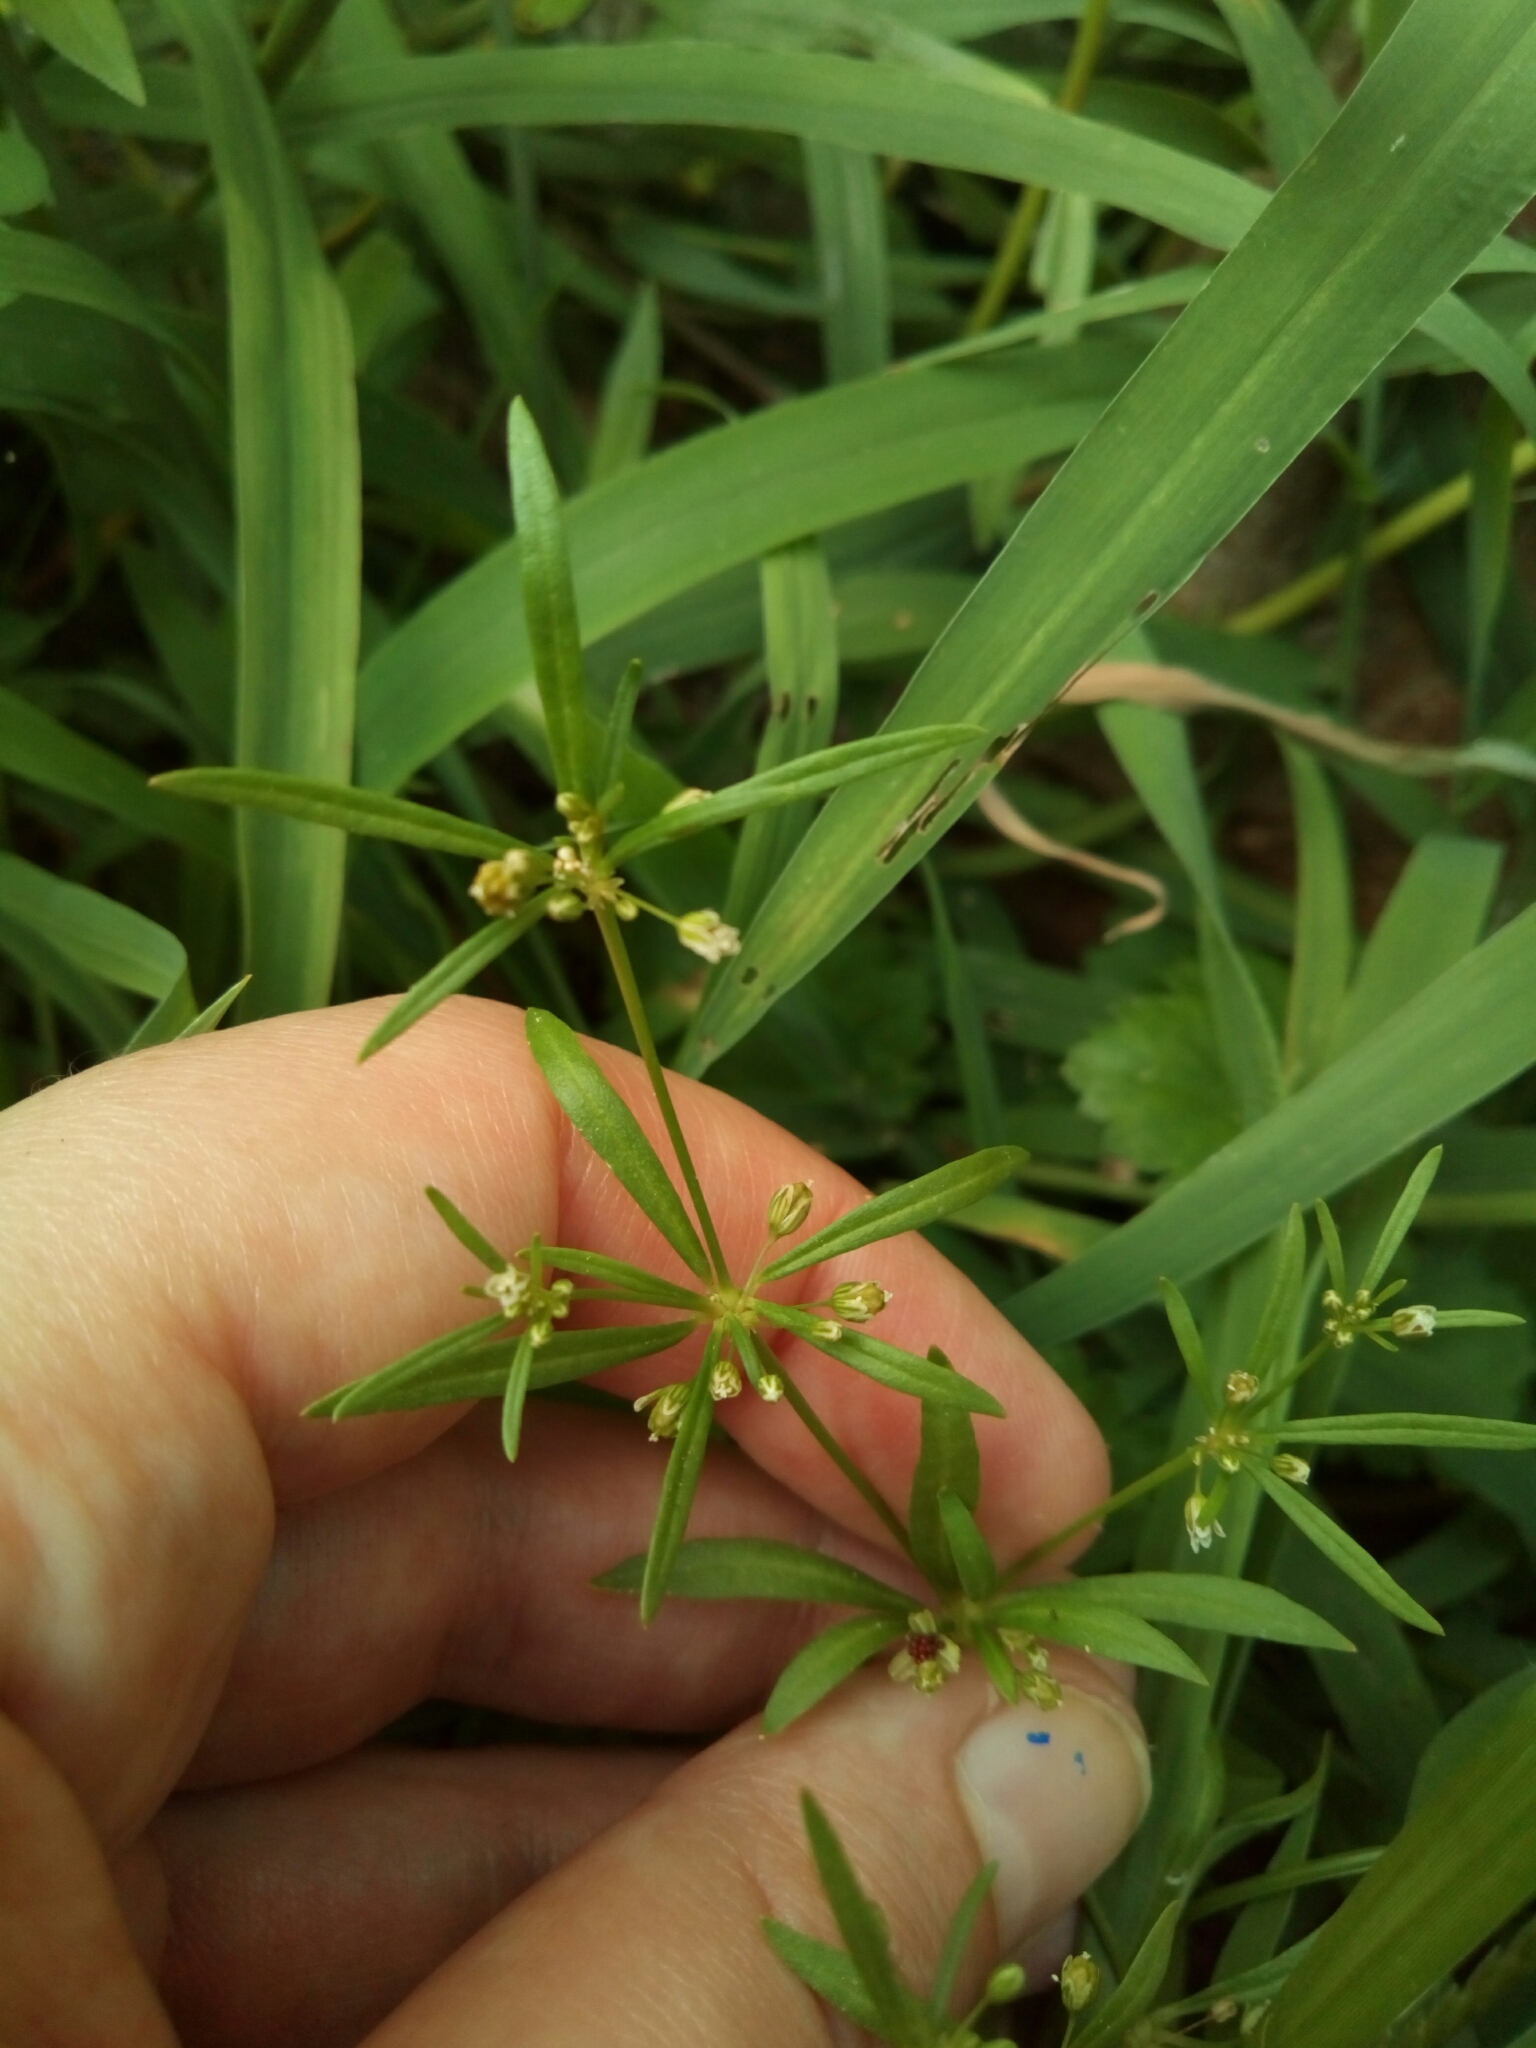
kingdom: Plantae
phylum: Tracheophyta
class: Magnoliopsida
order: Caryophyllales
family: Molluginaceae
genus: Mollugo
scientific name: Mollugo verticillata
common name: Green carpetweed
